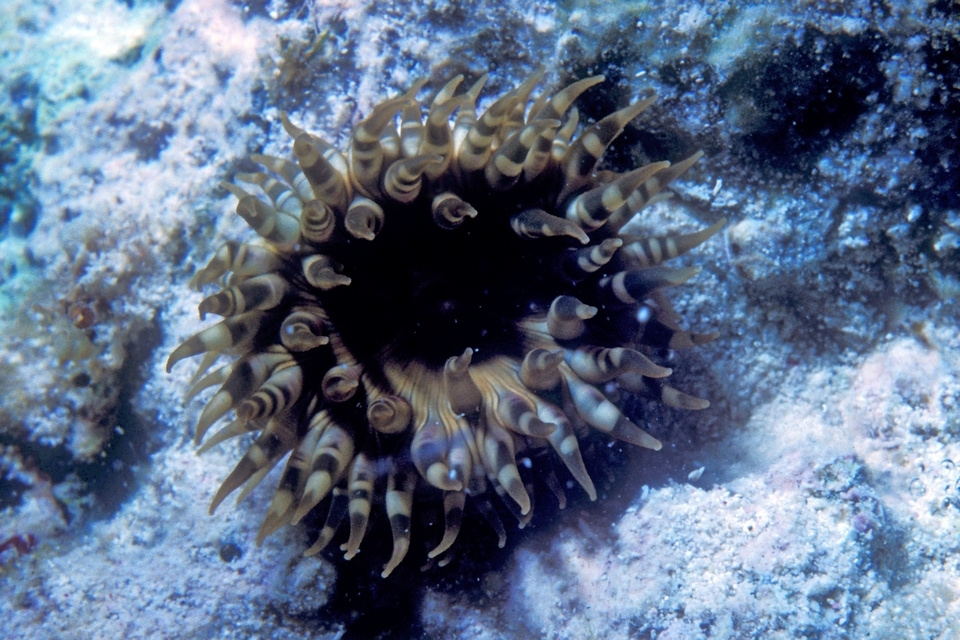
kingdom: Animalia
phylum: Cnidaria
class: Anthozoa
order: Actiniaria
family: Actiniidae
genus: Bunodosoma
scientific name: Bunodosoma granuliferum
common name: Red warty anemone
